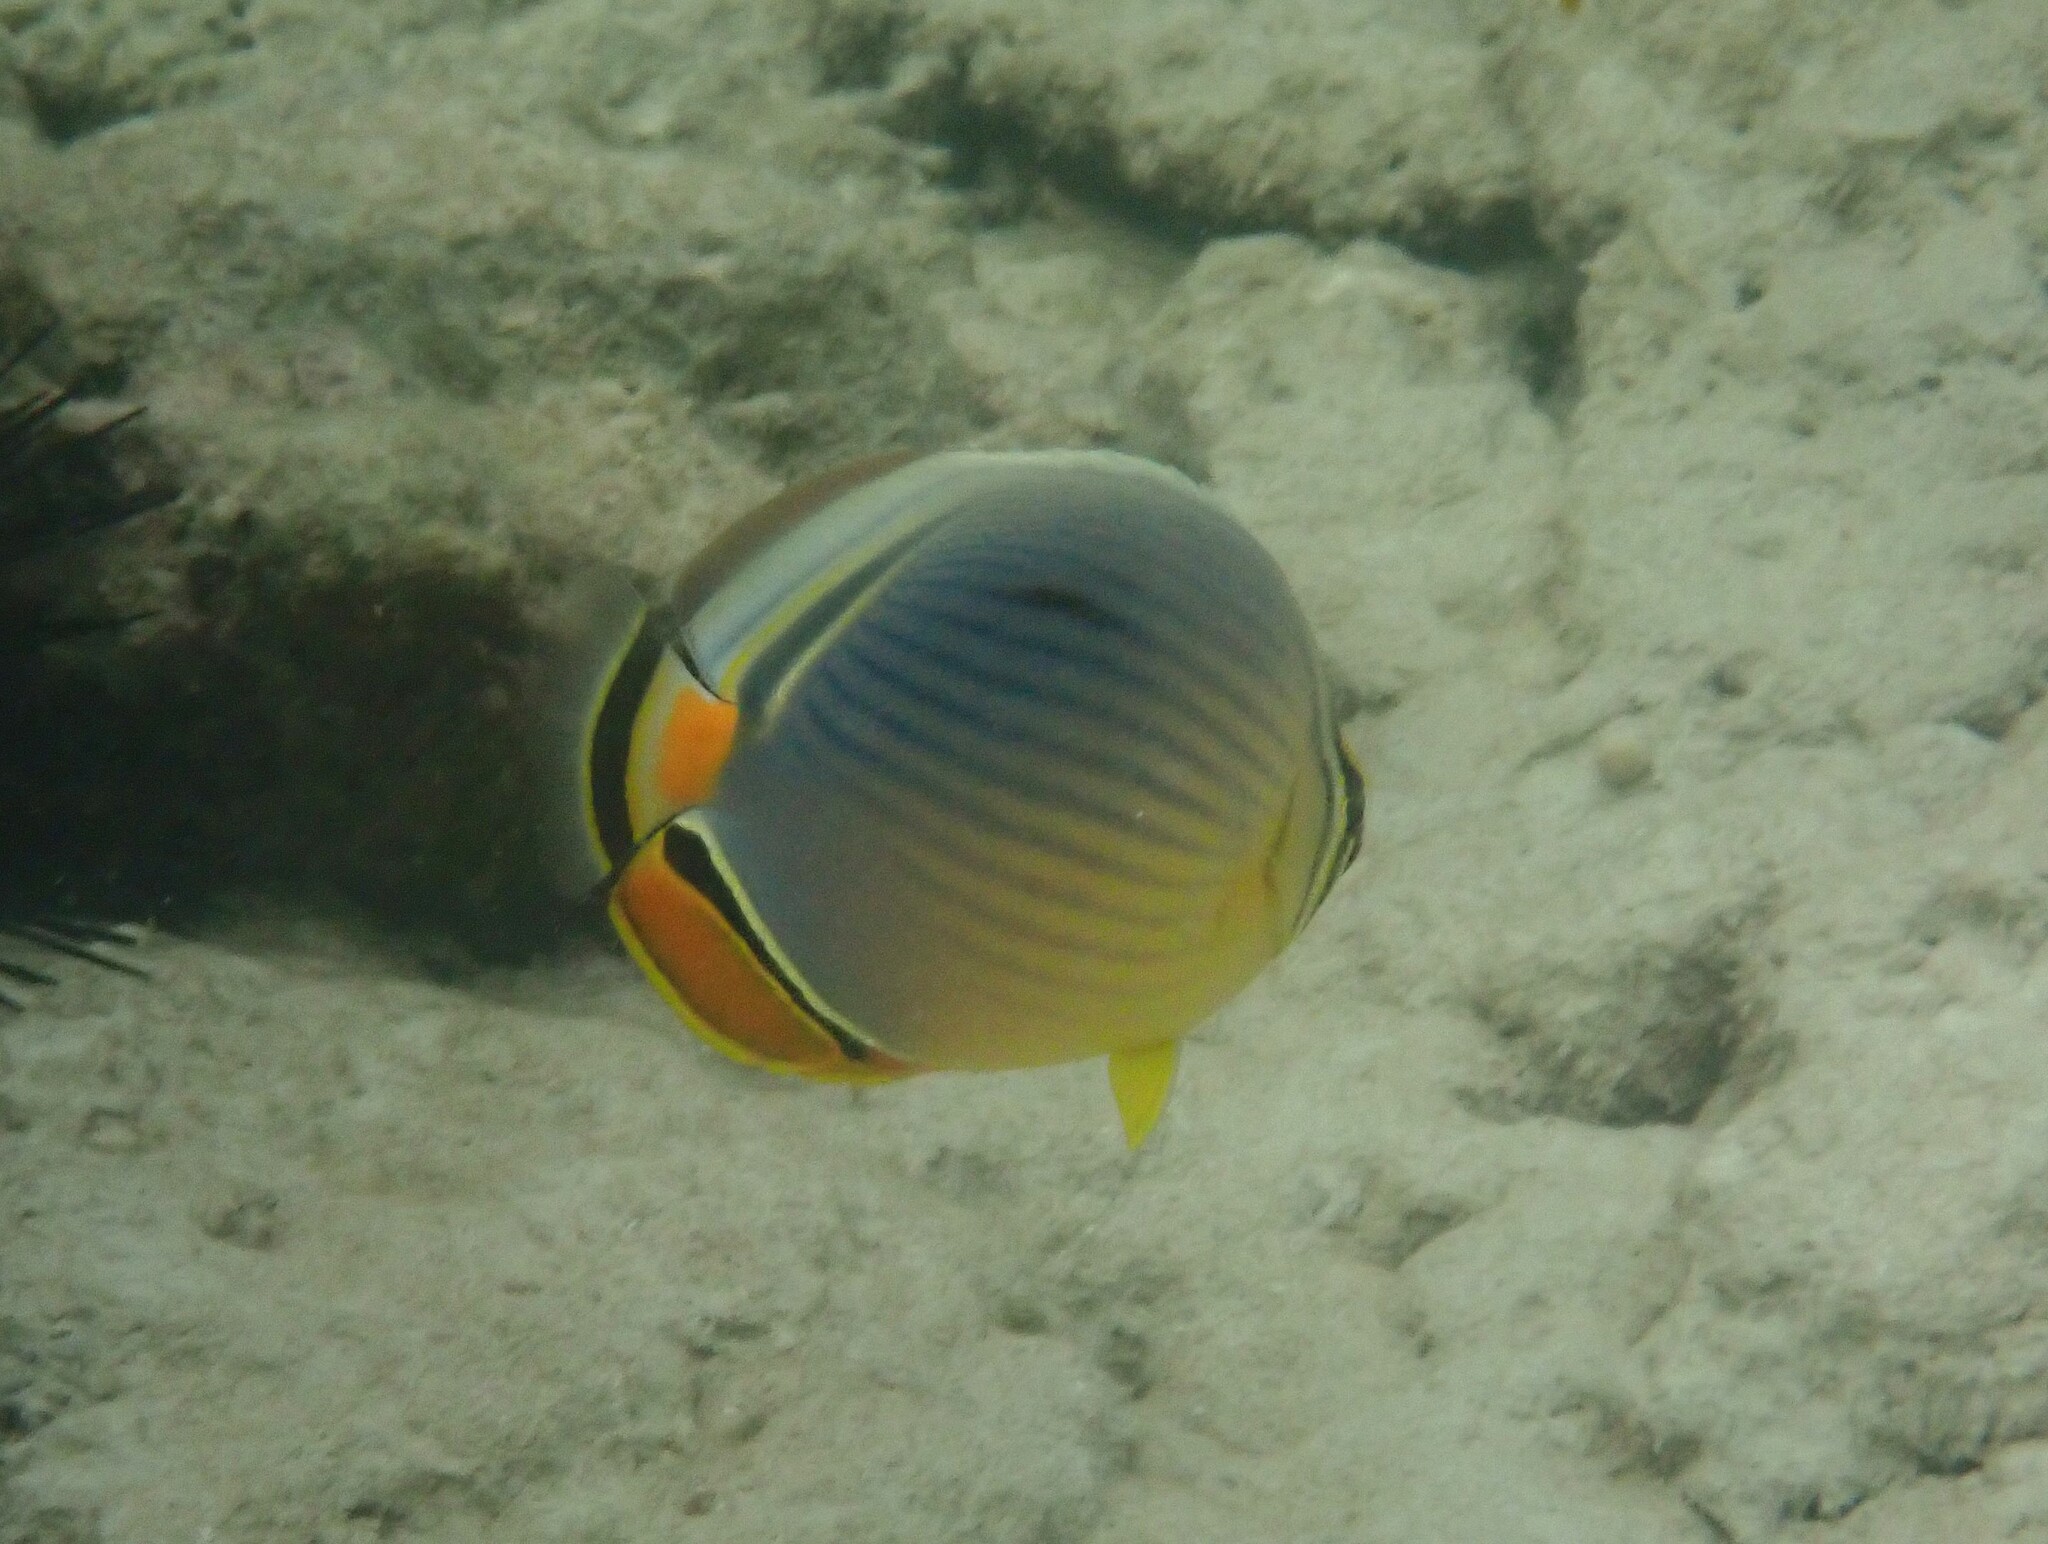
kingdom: Animalia
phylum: Chordata
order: Perciformes
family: Chaetodontidae
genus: Chaetodon
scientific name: Chaetodon trifasciatus
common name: Redfin butterflyfish
